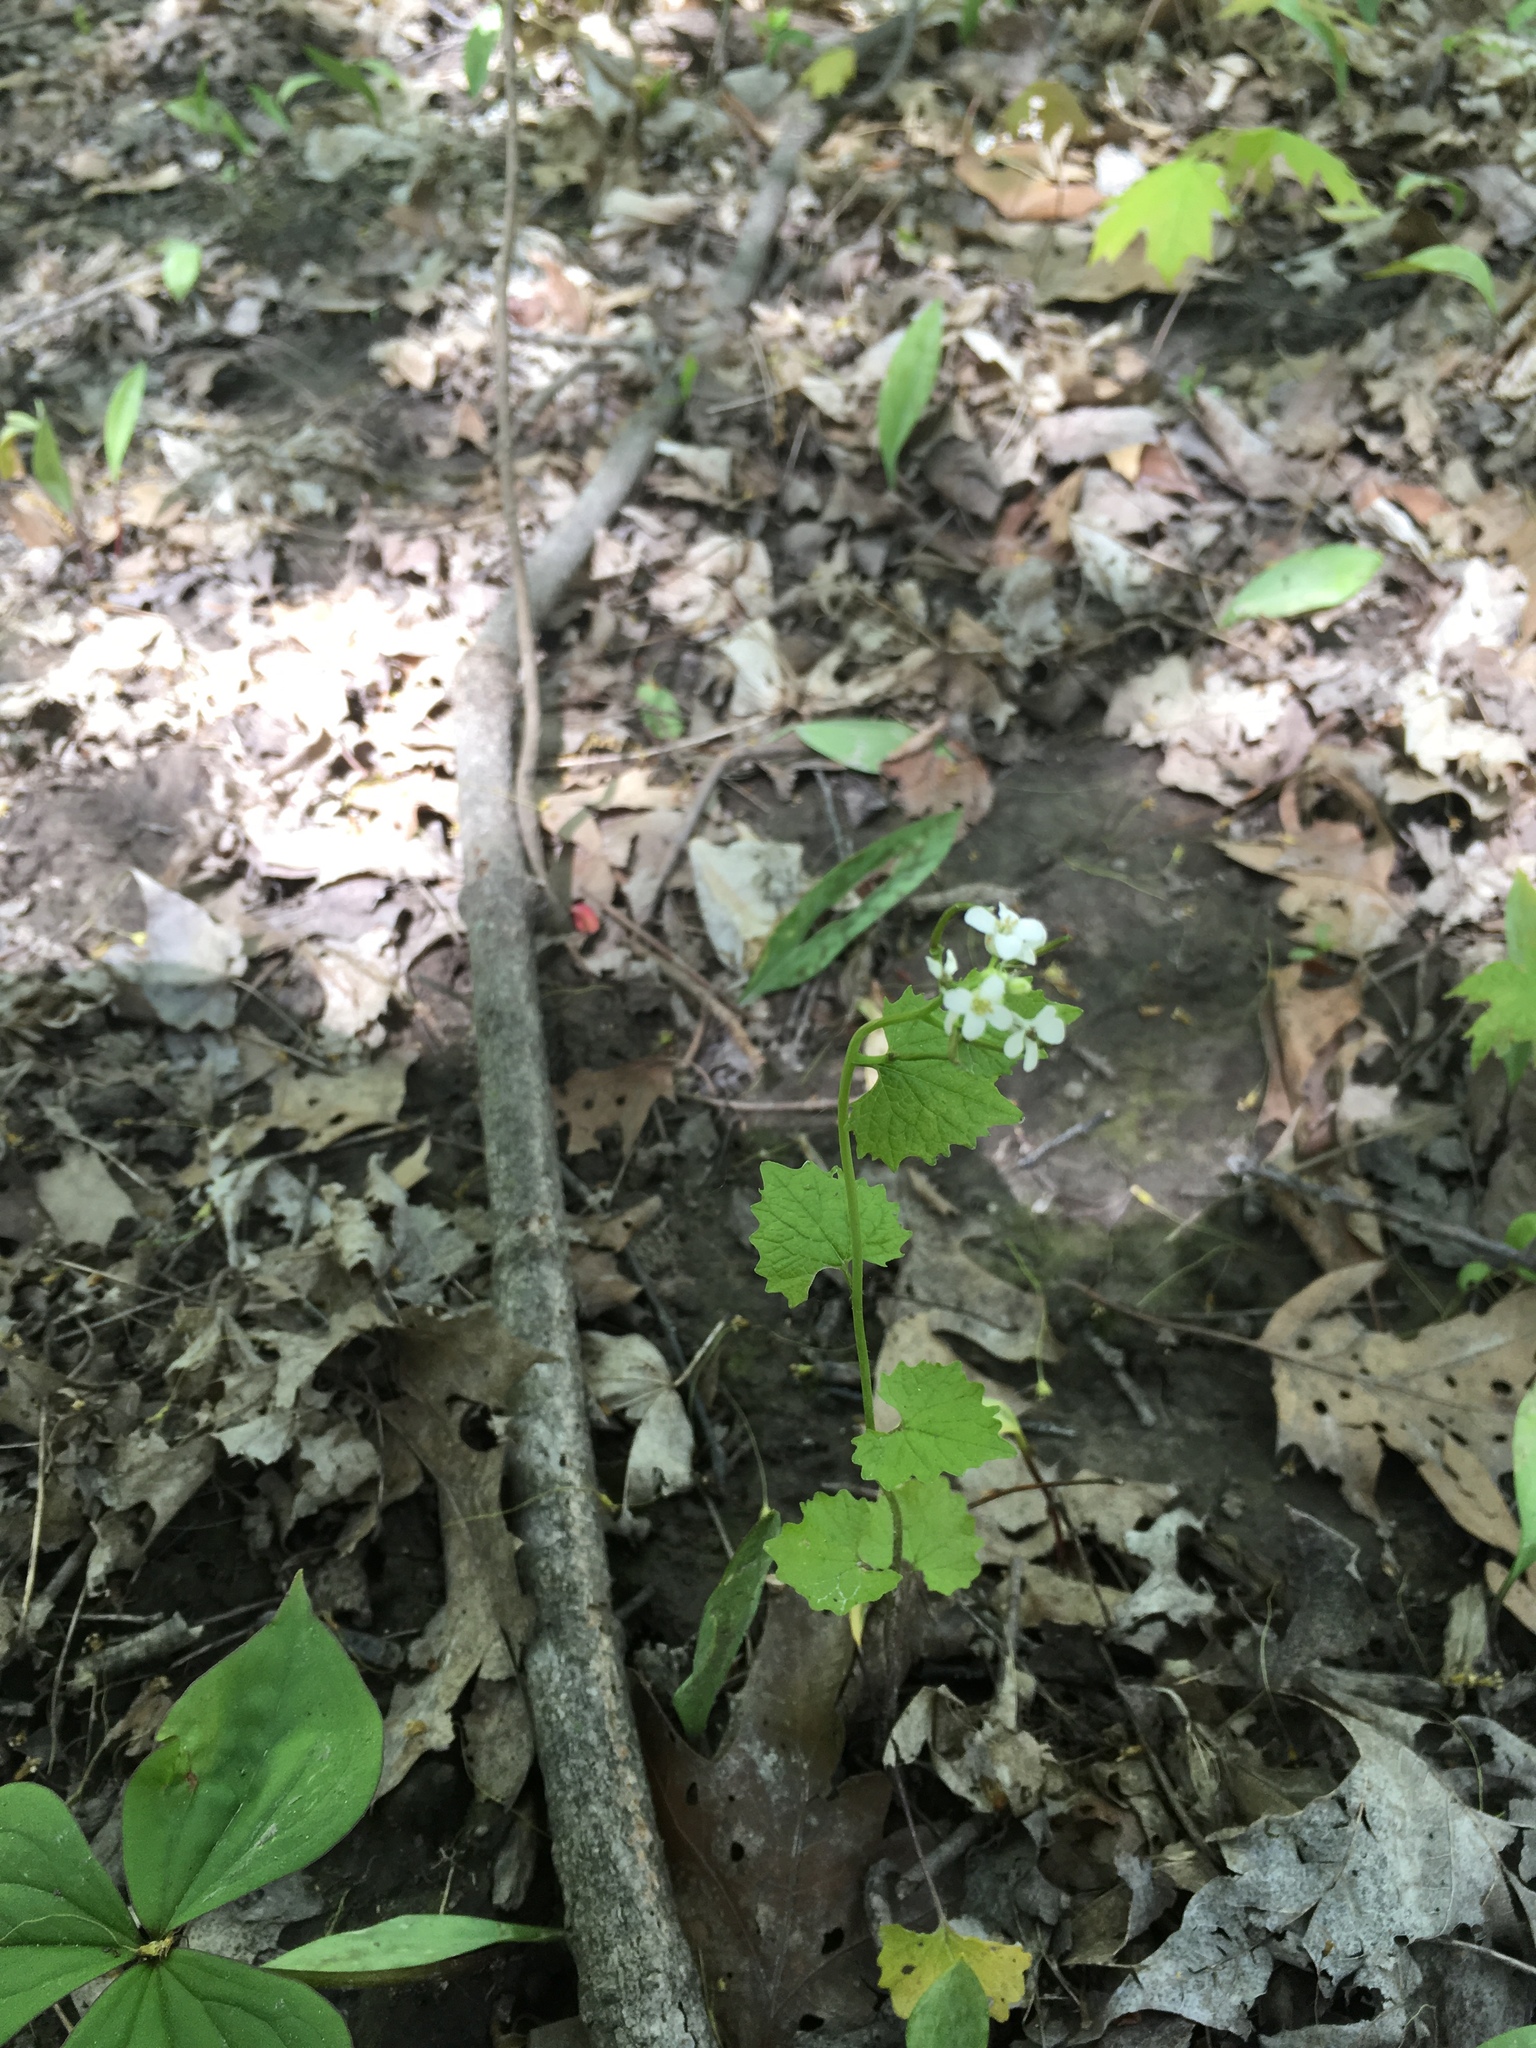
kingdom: Plantae
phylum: Tracheophyta
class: Magnoliopsida
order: Brassicales
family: Brassicaceae
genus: Alliaria
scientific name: Alliaria petiolata
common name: Garlic mustard
